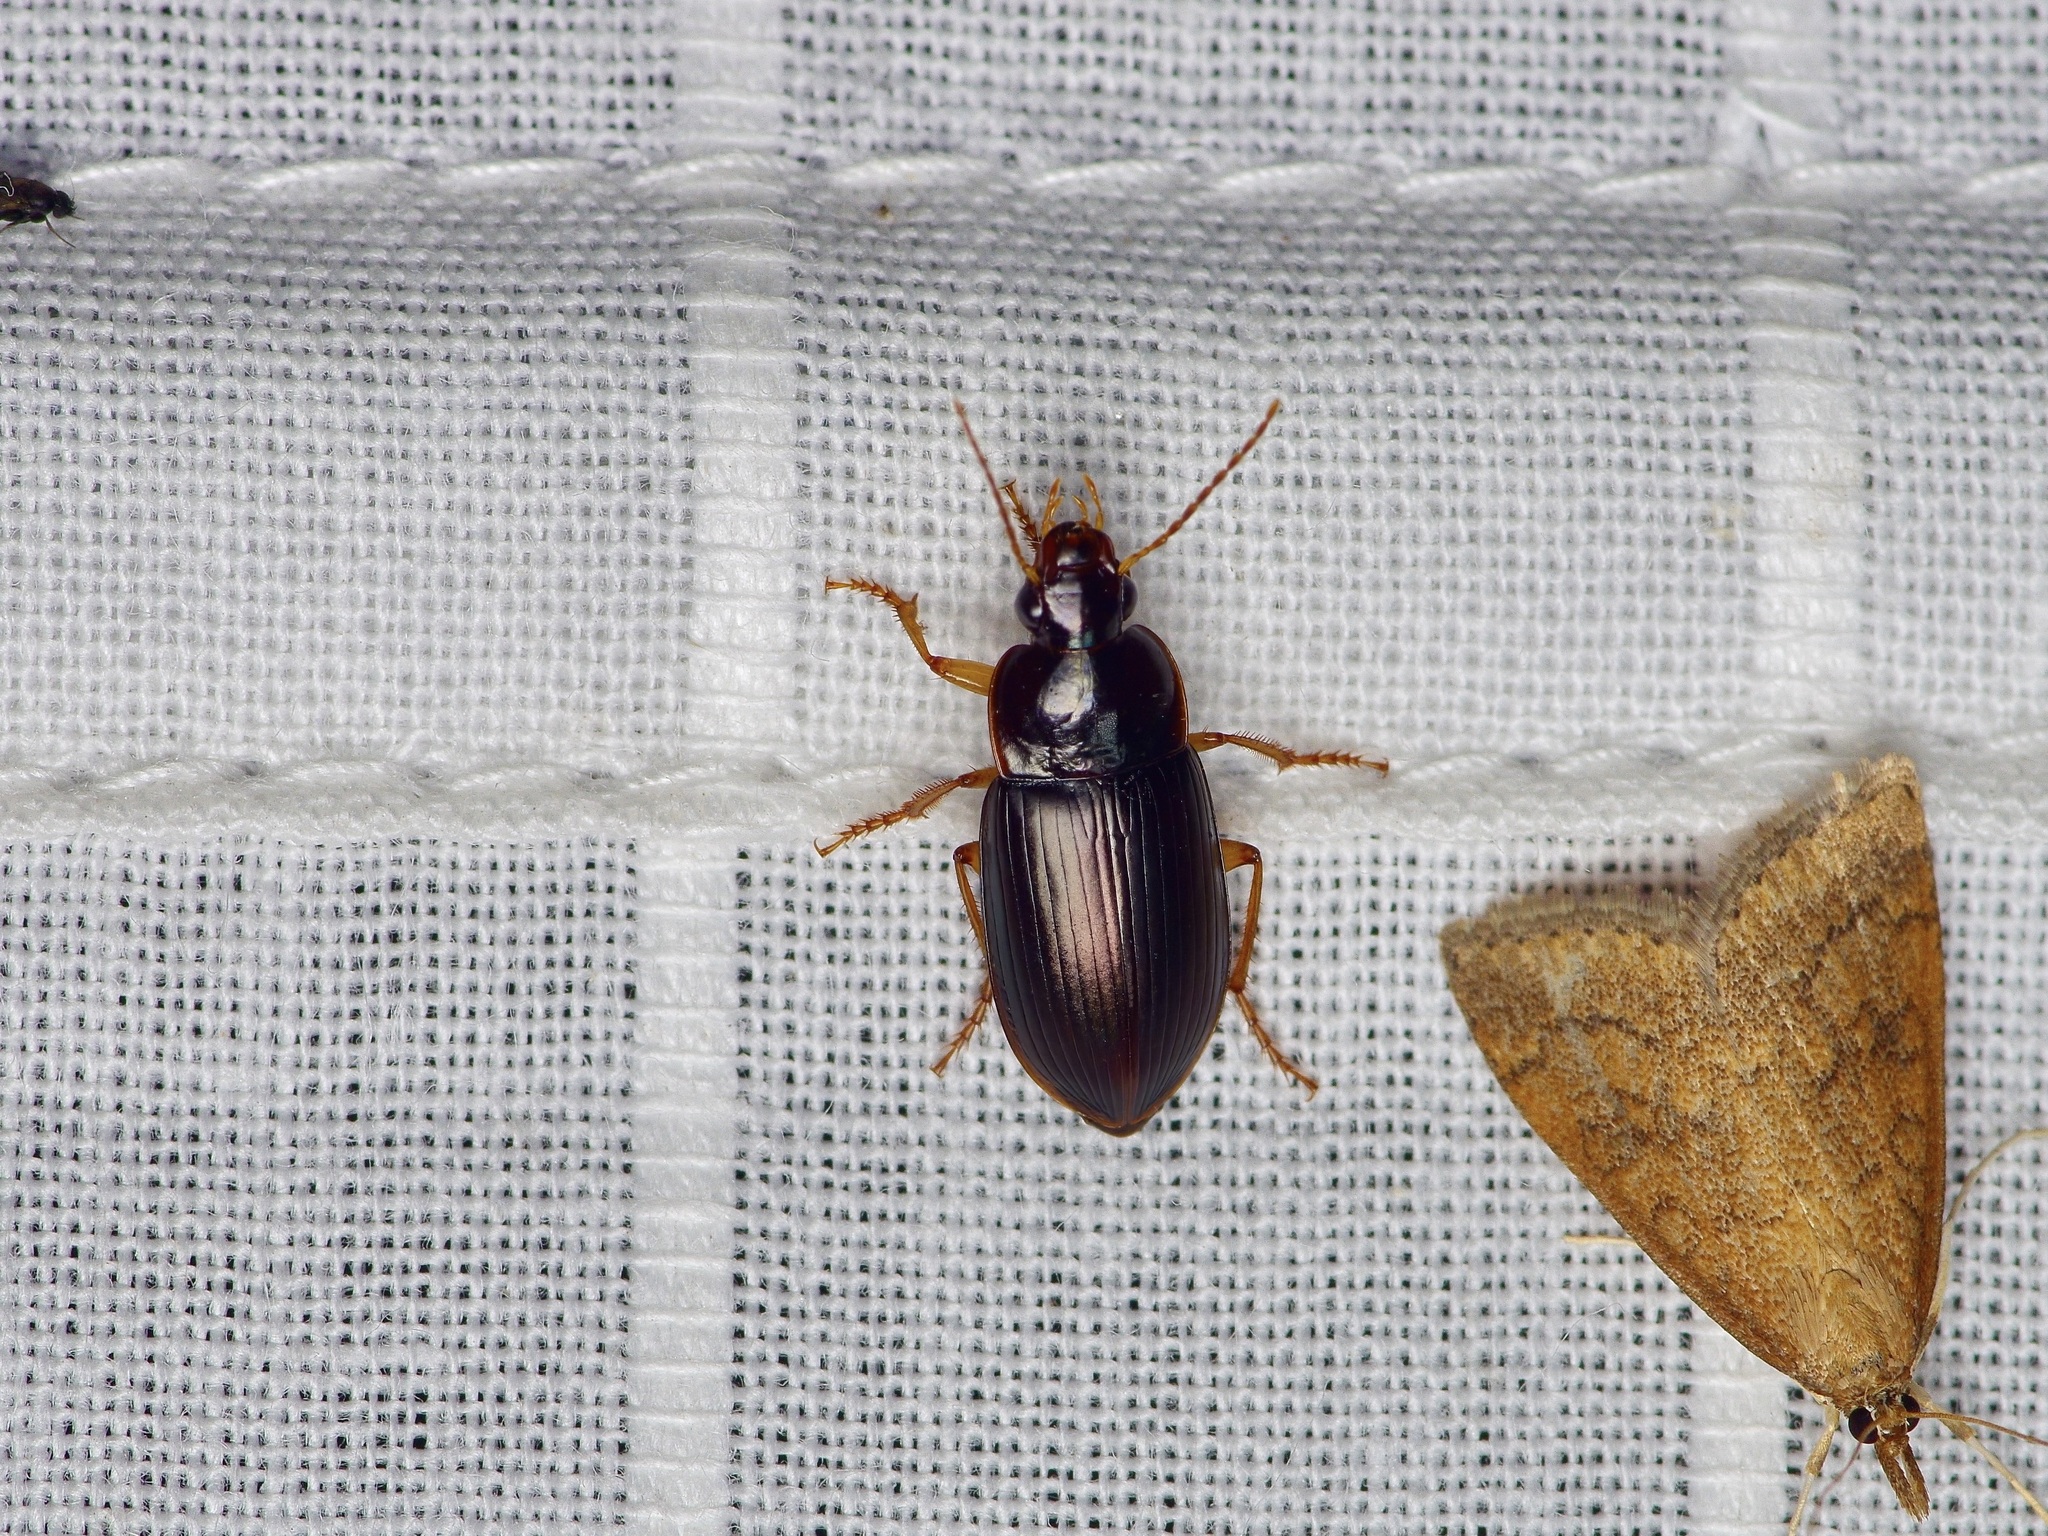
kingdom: Animalia
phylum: Arthropoda
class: Insecta
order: Coleoptera
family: Carabidae
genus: Notiobia
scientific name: Notiobia terminata
